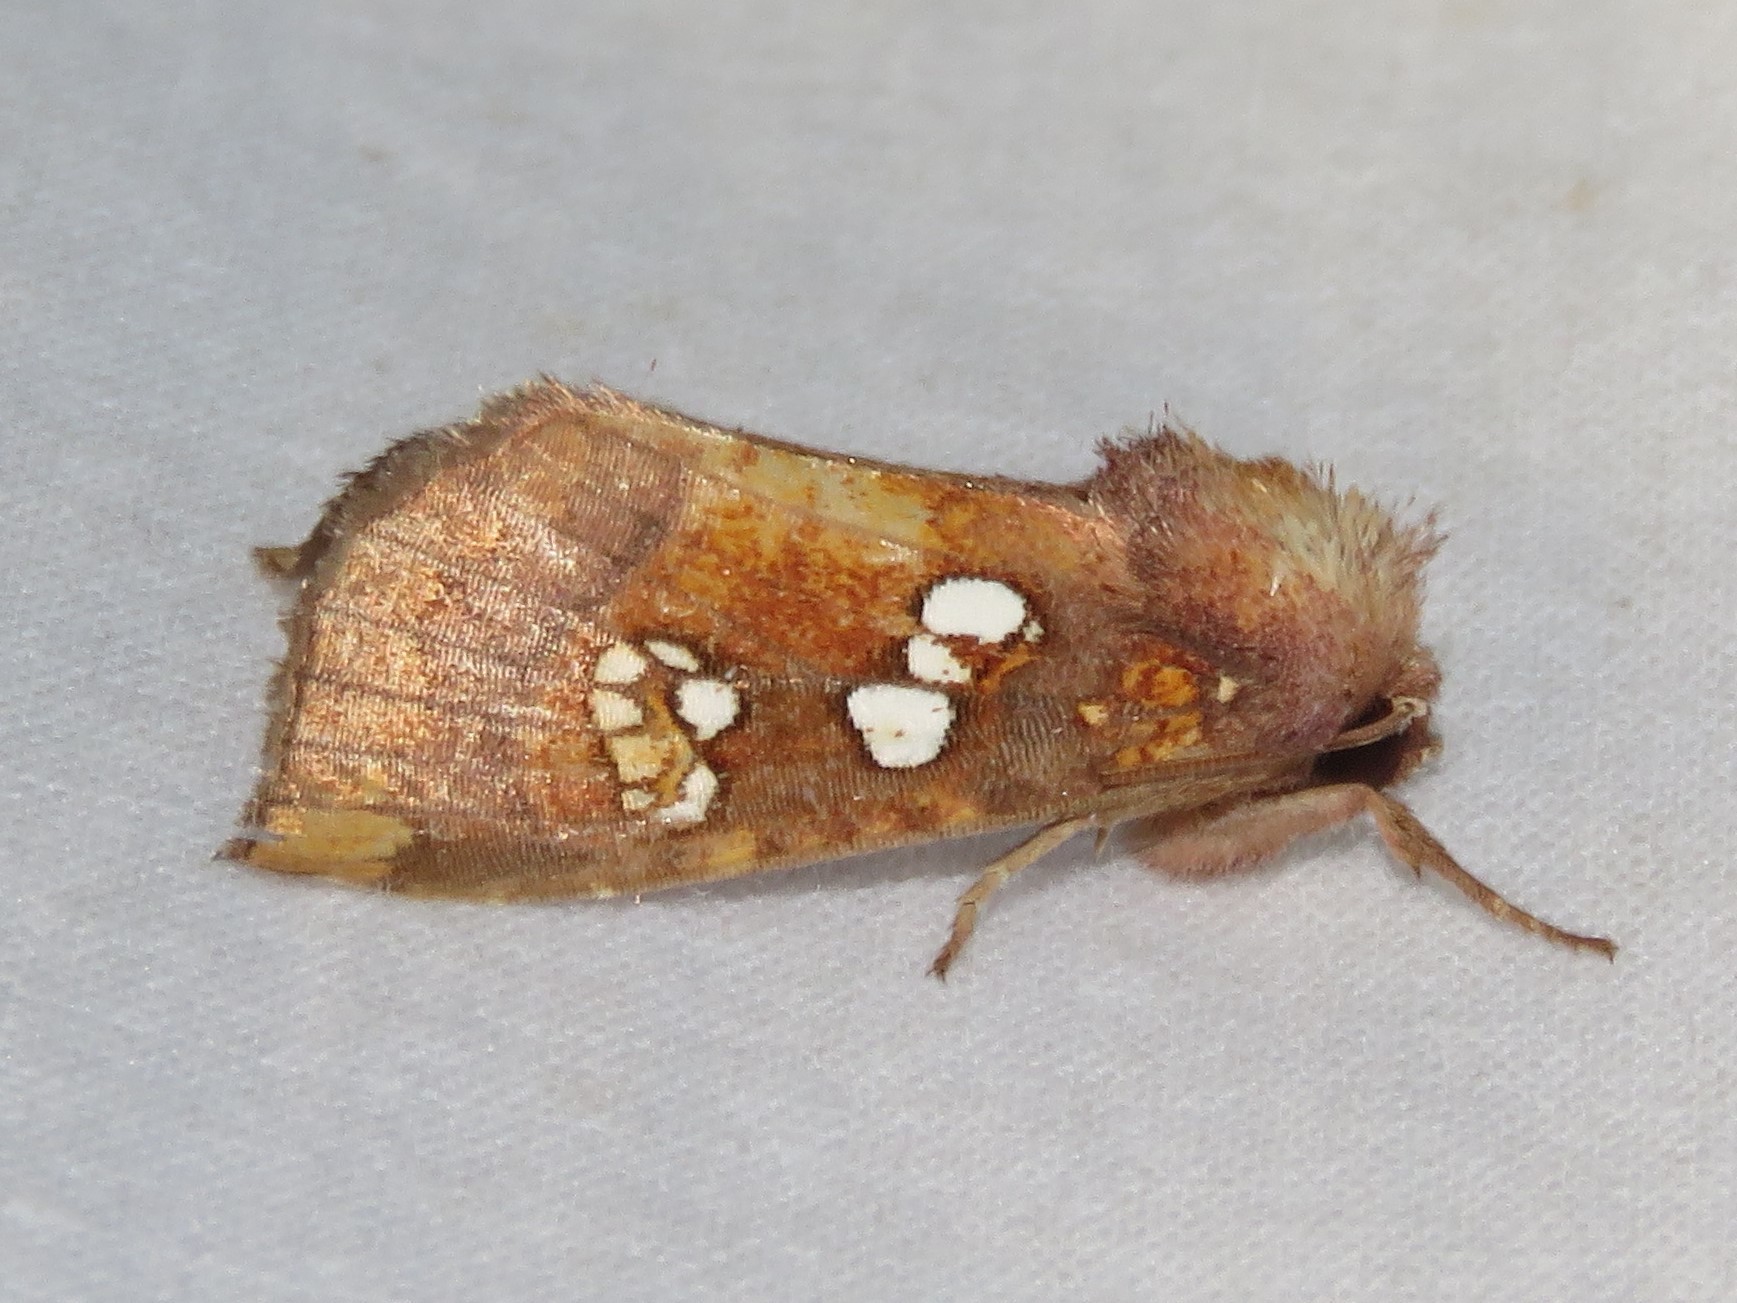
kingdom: Animalia
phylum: Arthropoda
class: Insecta
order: Lepidoptera
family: Noctuidae
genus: Papaipema
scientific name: Papaipema baptisiae
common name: Wild indigo borer moth
